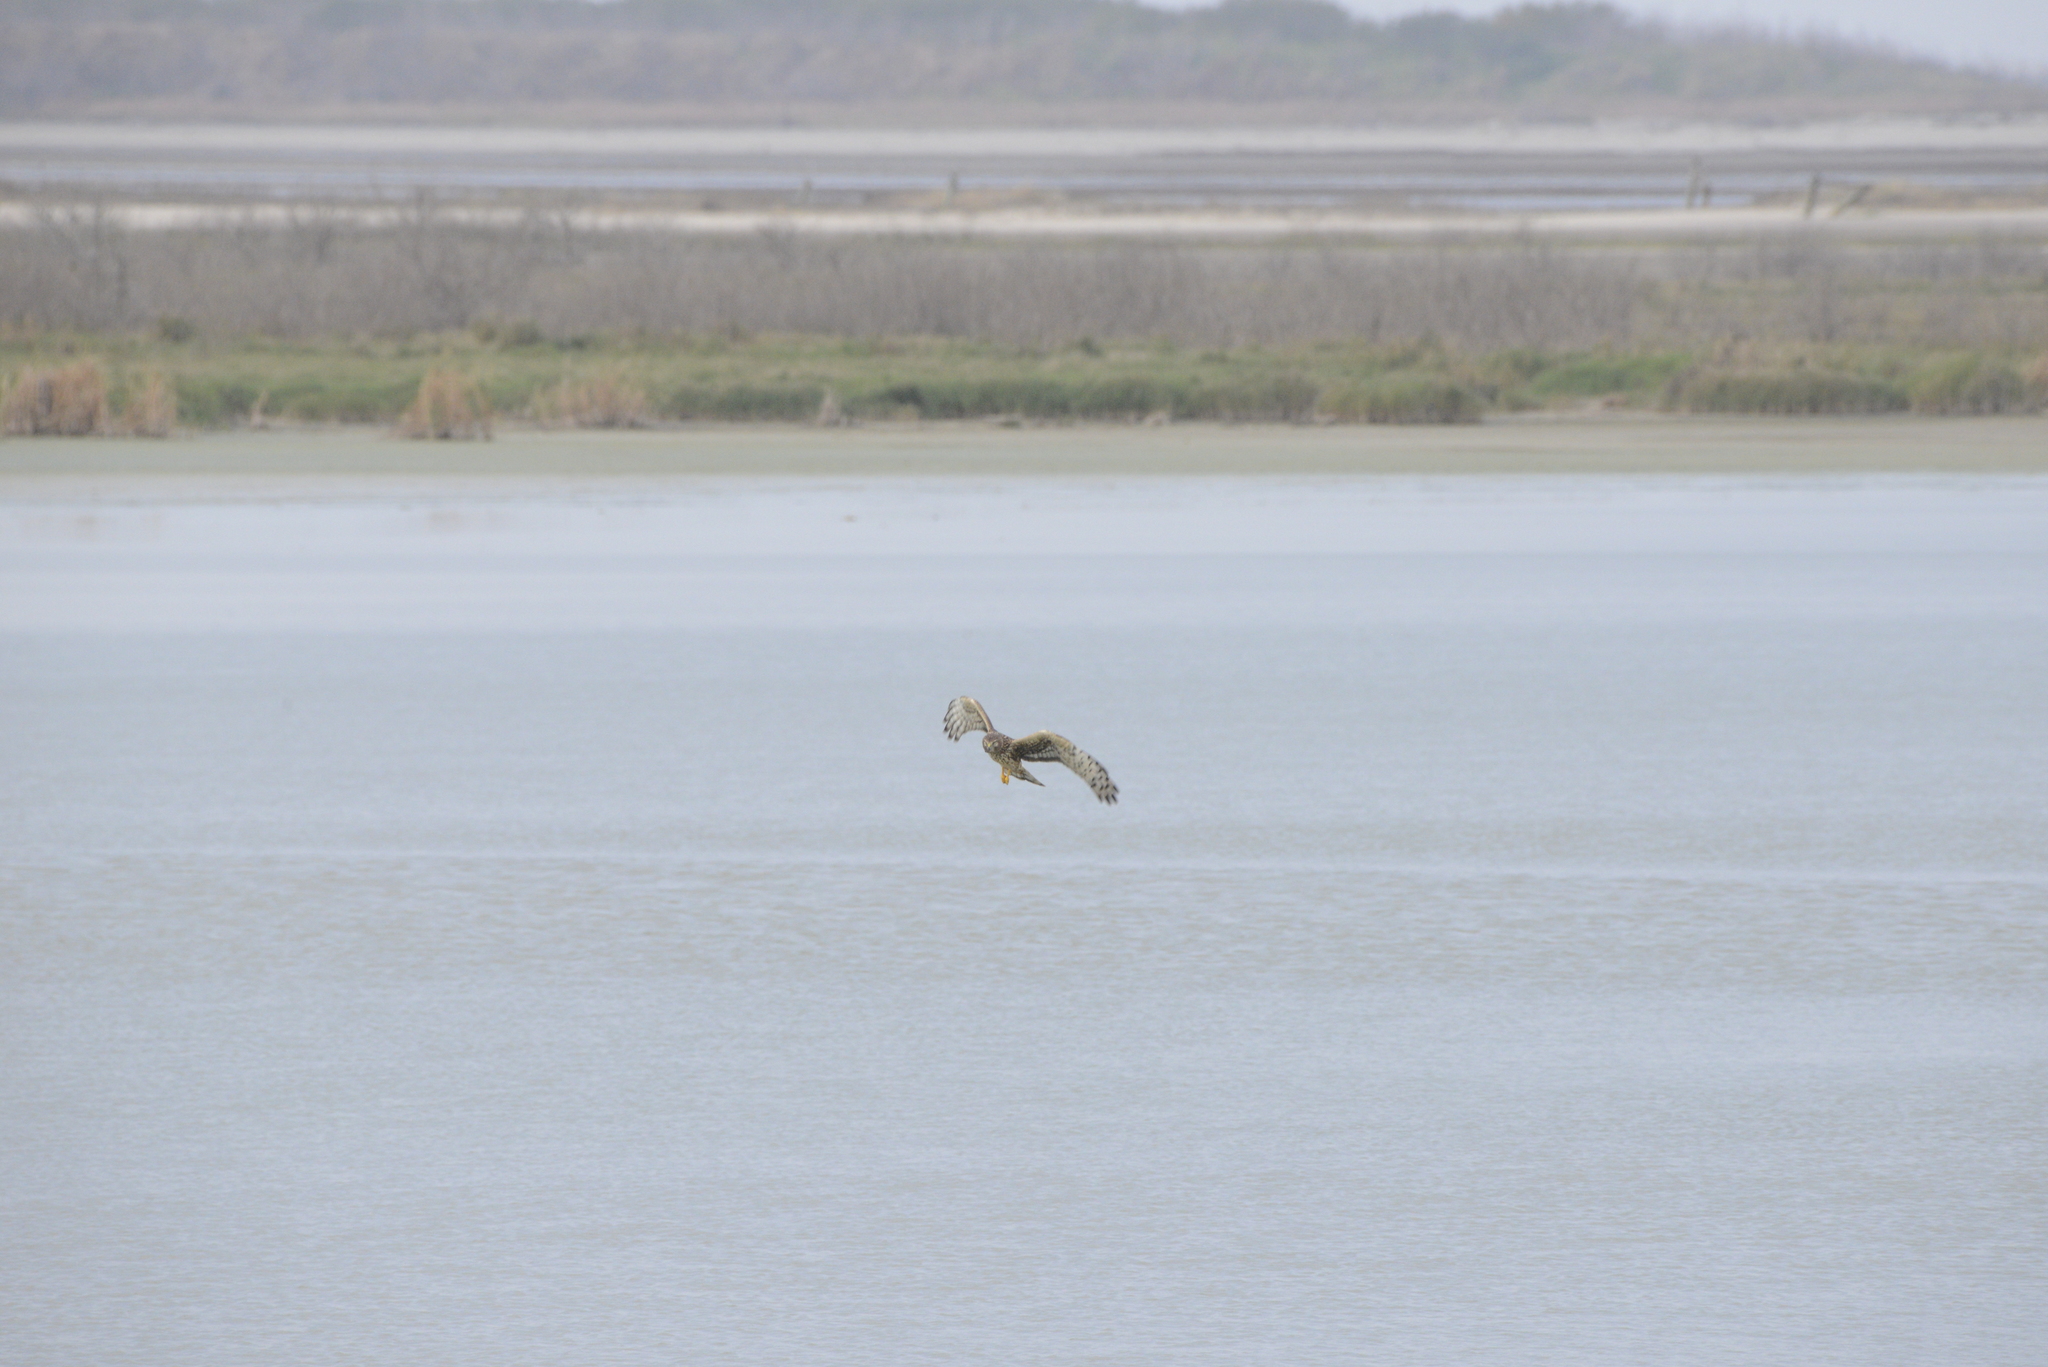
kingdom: Animalia
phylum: Chordata
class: Aves
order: Accipitriformes
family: Accipitridae
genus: Circus
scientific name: Circus cyaneus
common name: Hen harrier
